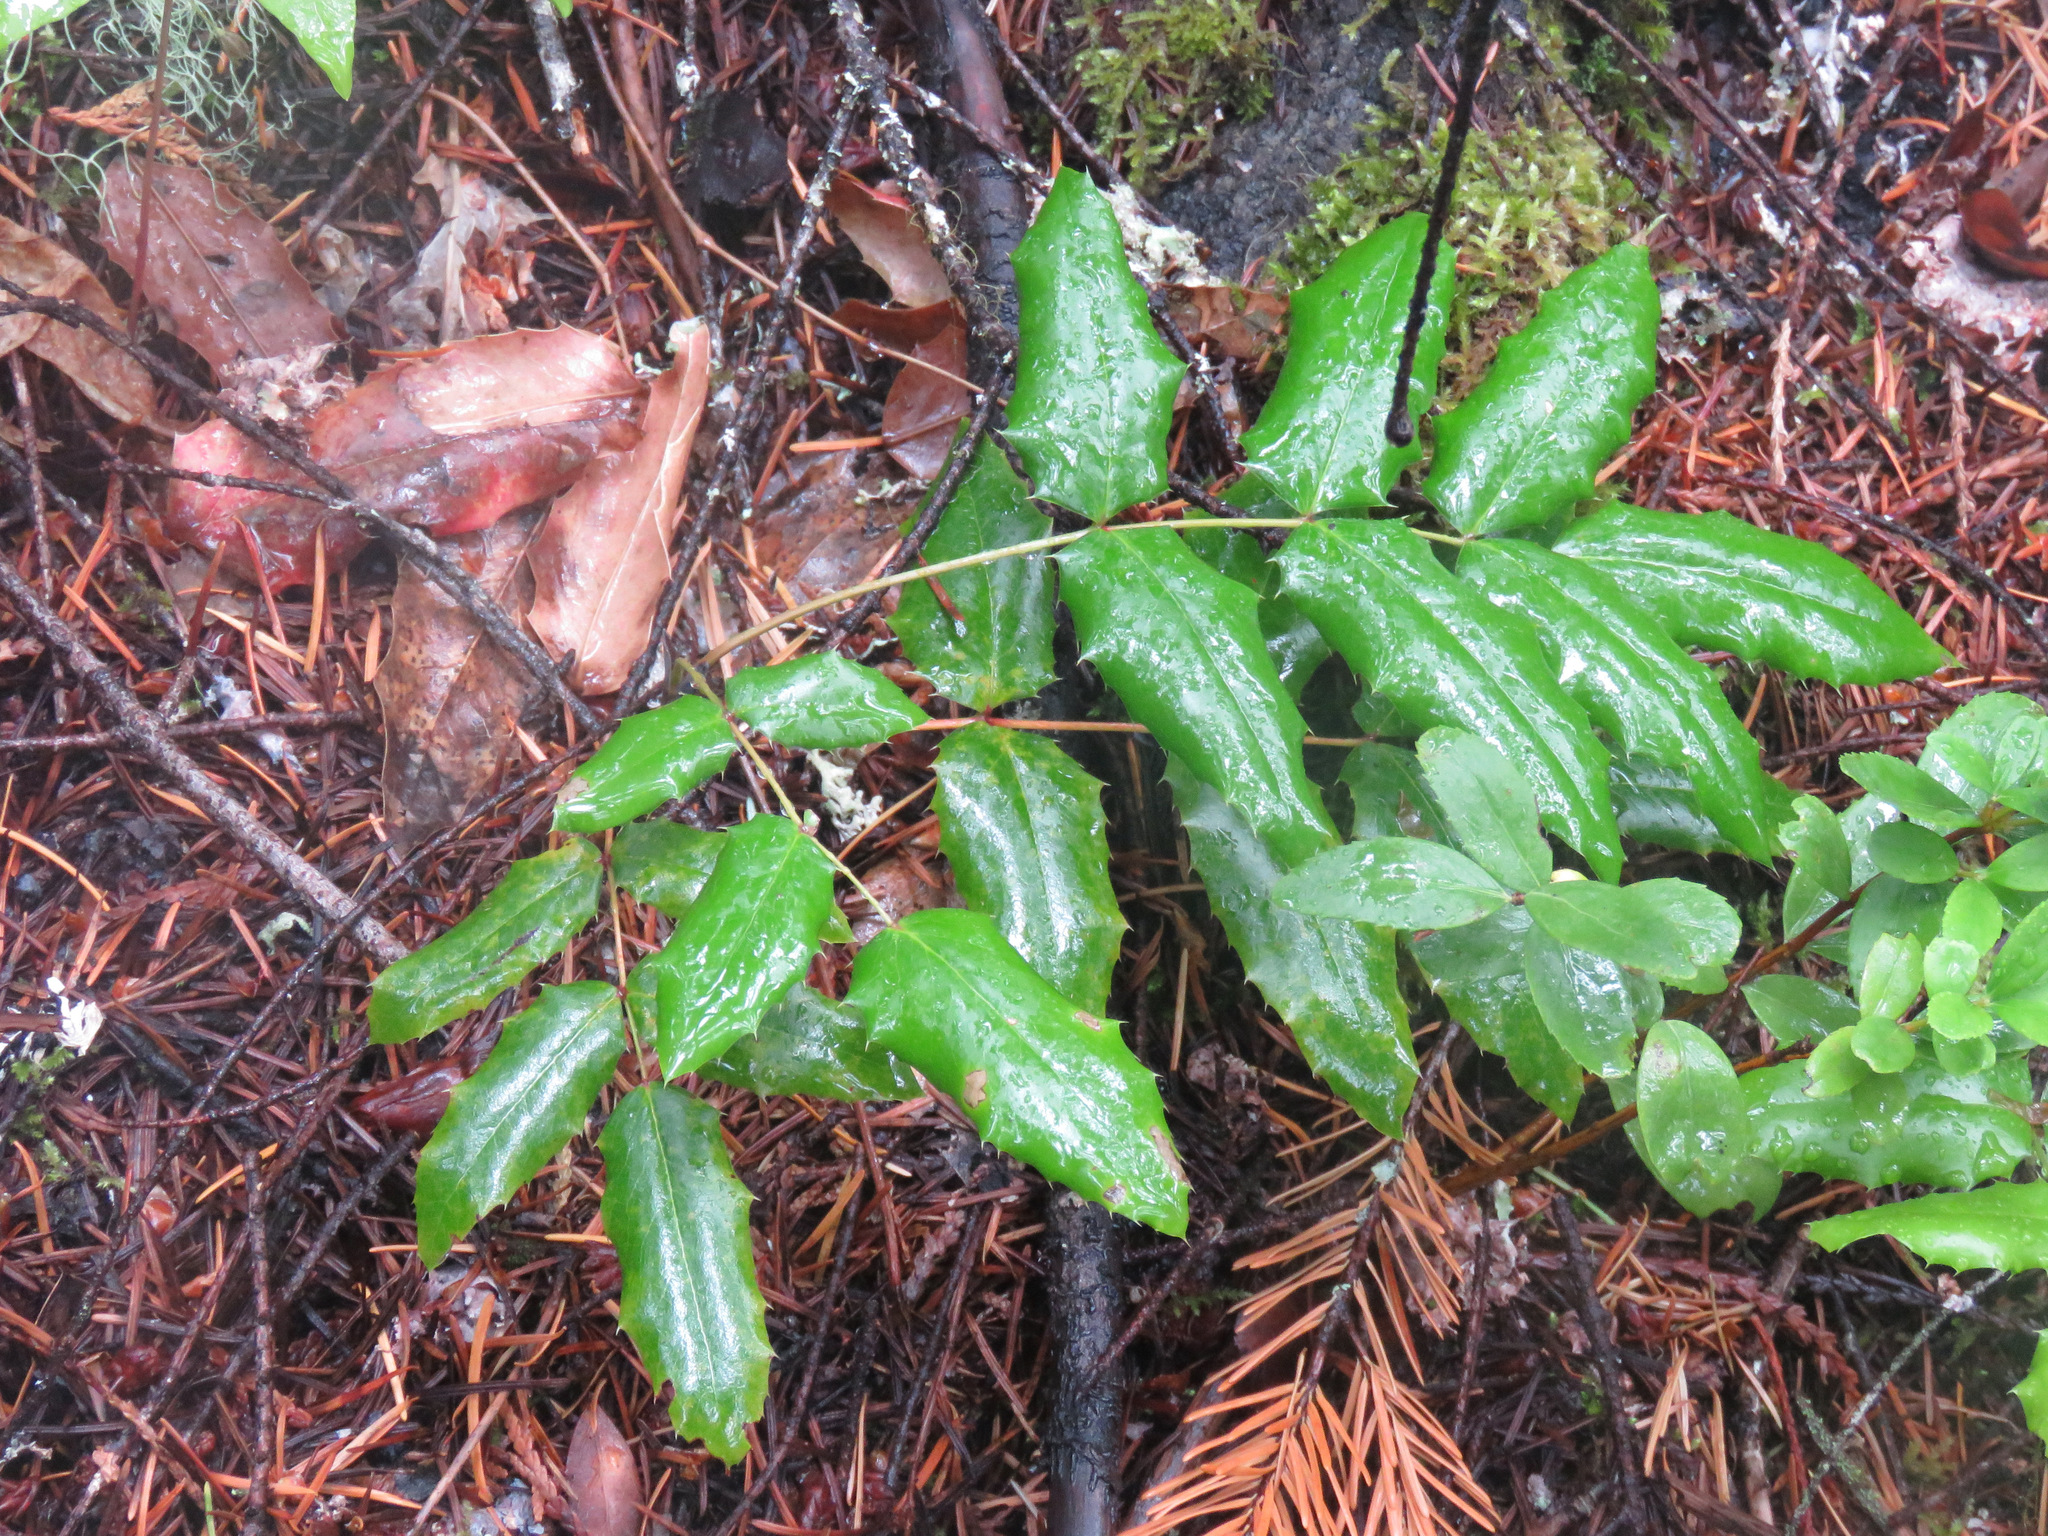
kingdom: Plantae
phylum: Tracheophyta
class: Magnoliopsida
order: Ranunculales
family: Berberidaceae
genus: Mahonia
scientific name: Mahonia aquifolium
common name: Oregon-grape
